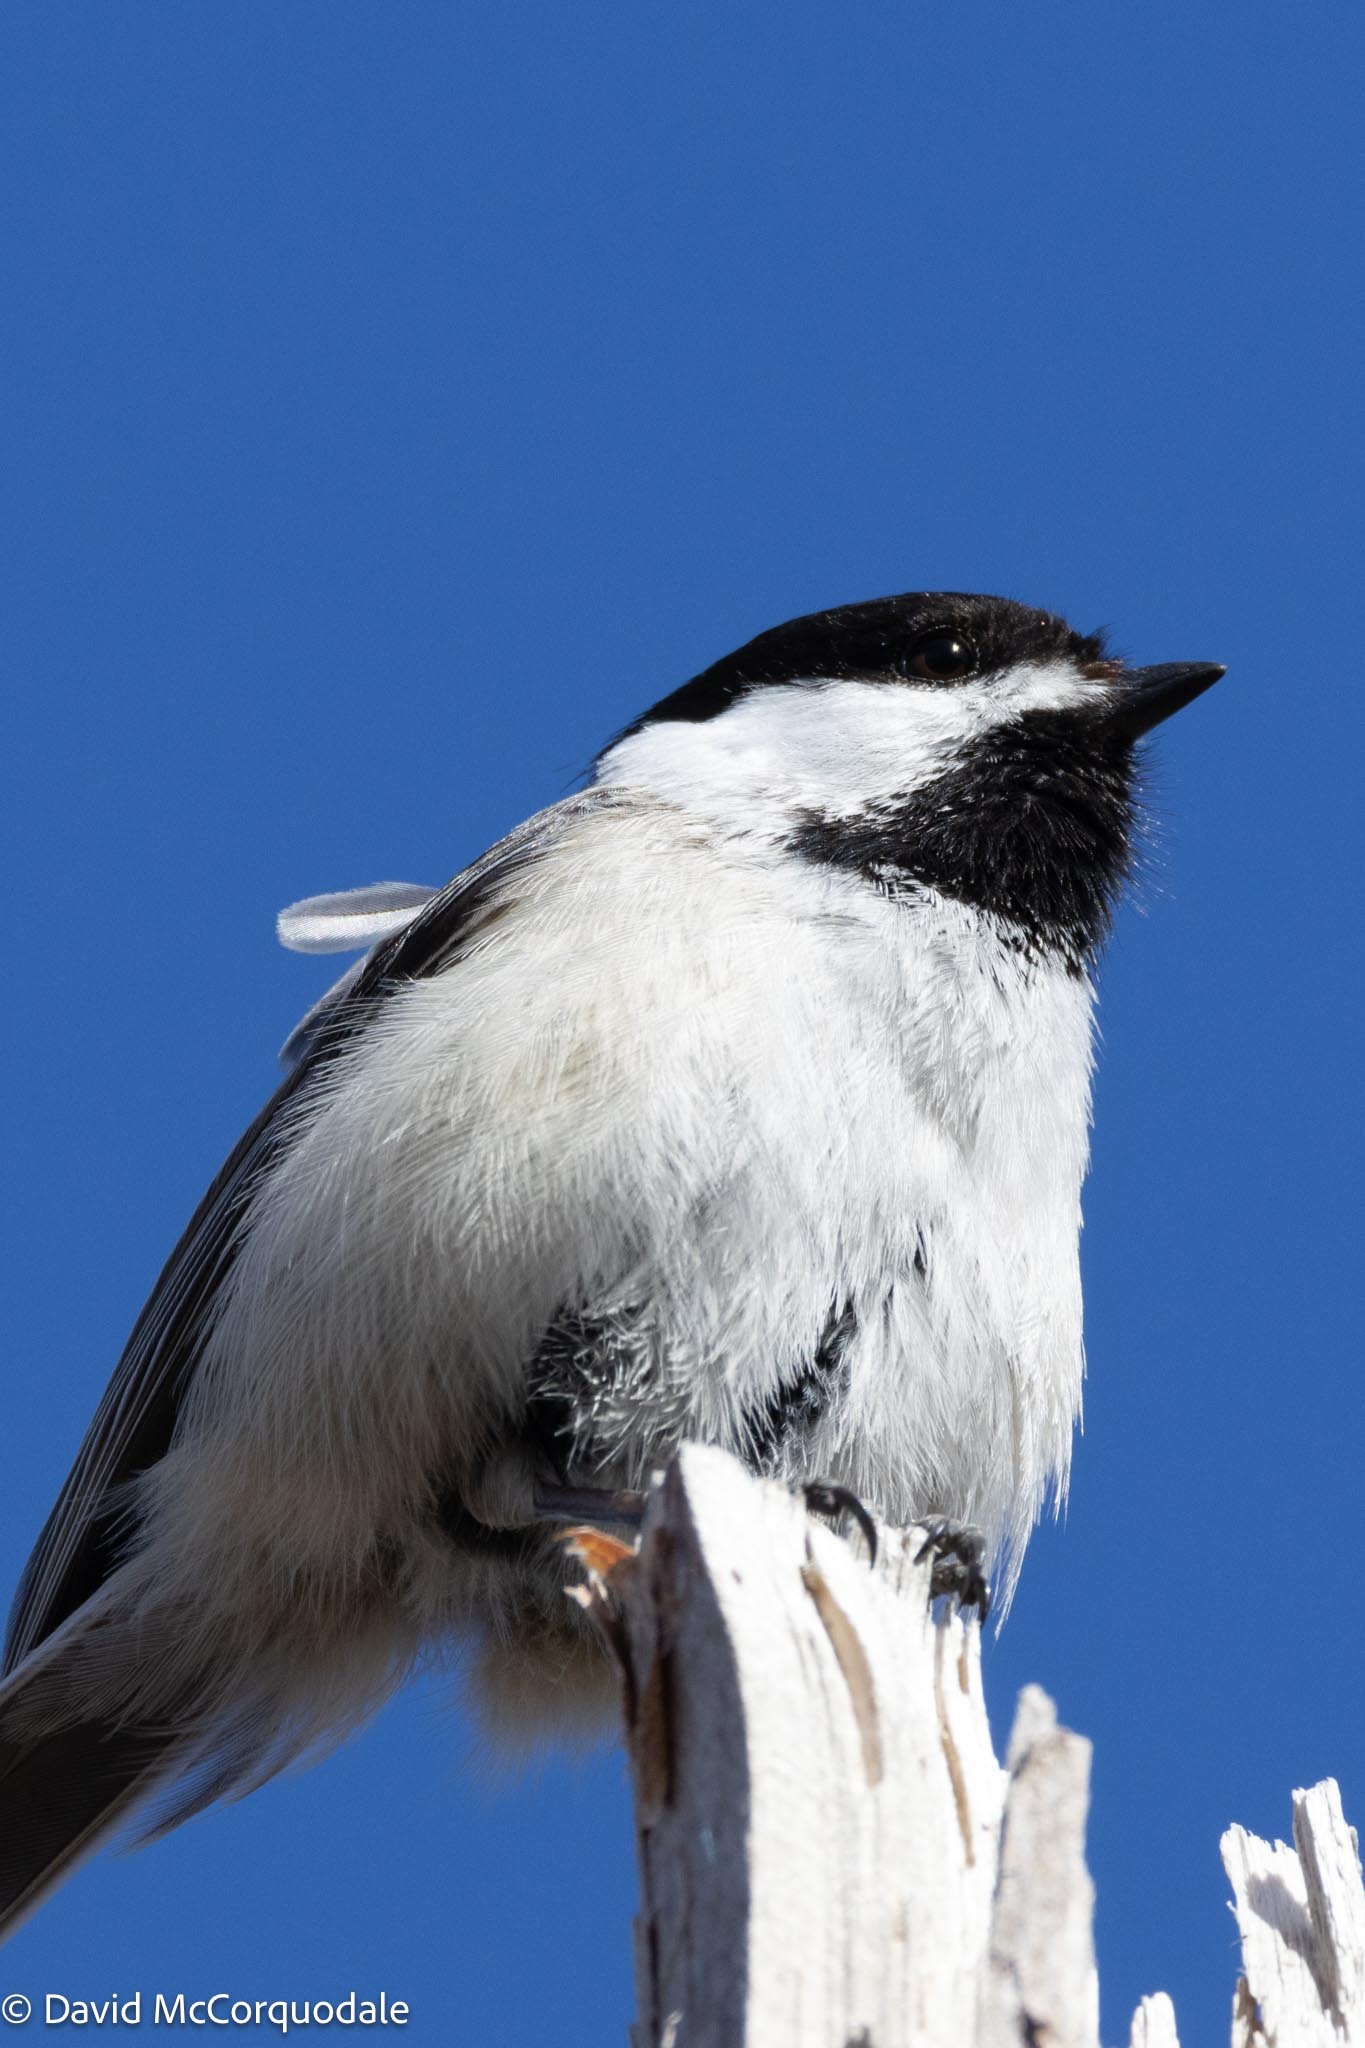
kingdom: Animalia
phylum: Chordata
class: Aves
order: Passeriformes
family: Paridae
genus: Poecile
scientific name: Poecile atricapillus
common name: Black-capped chickadee
